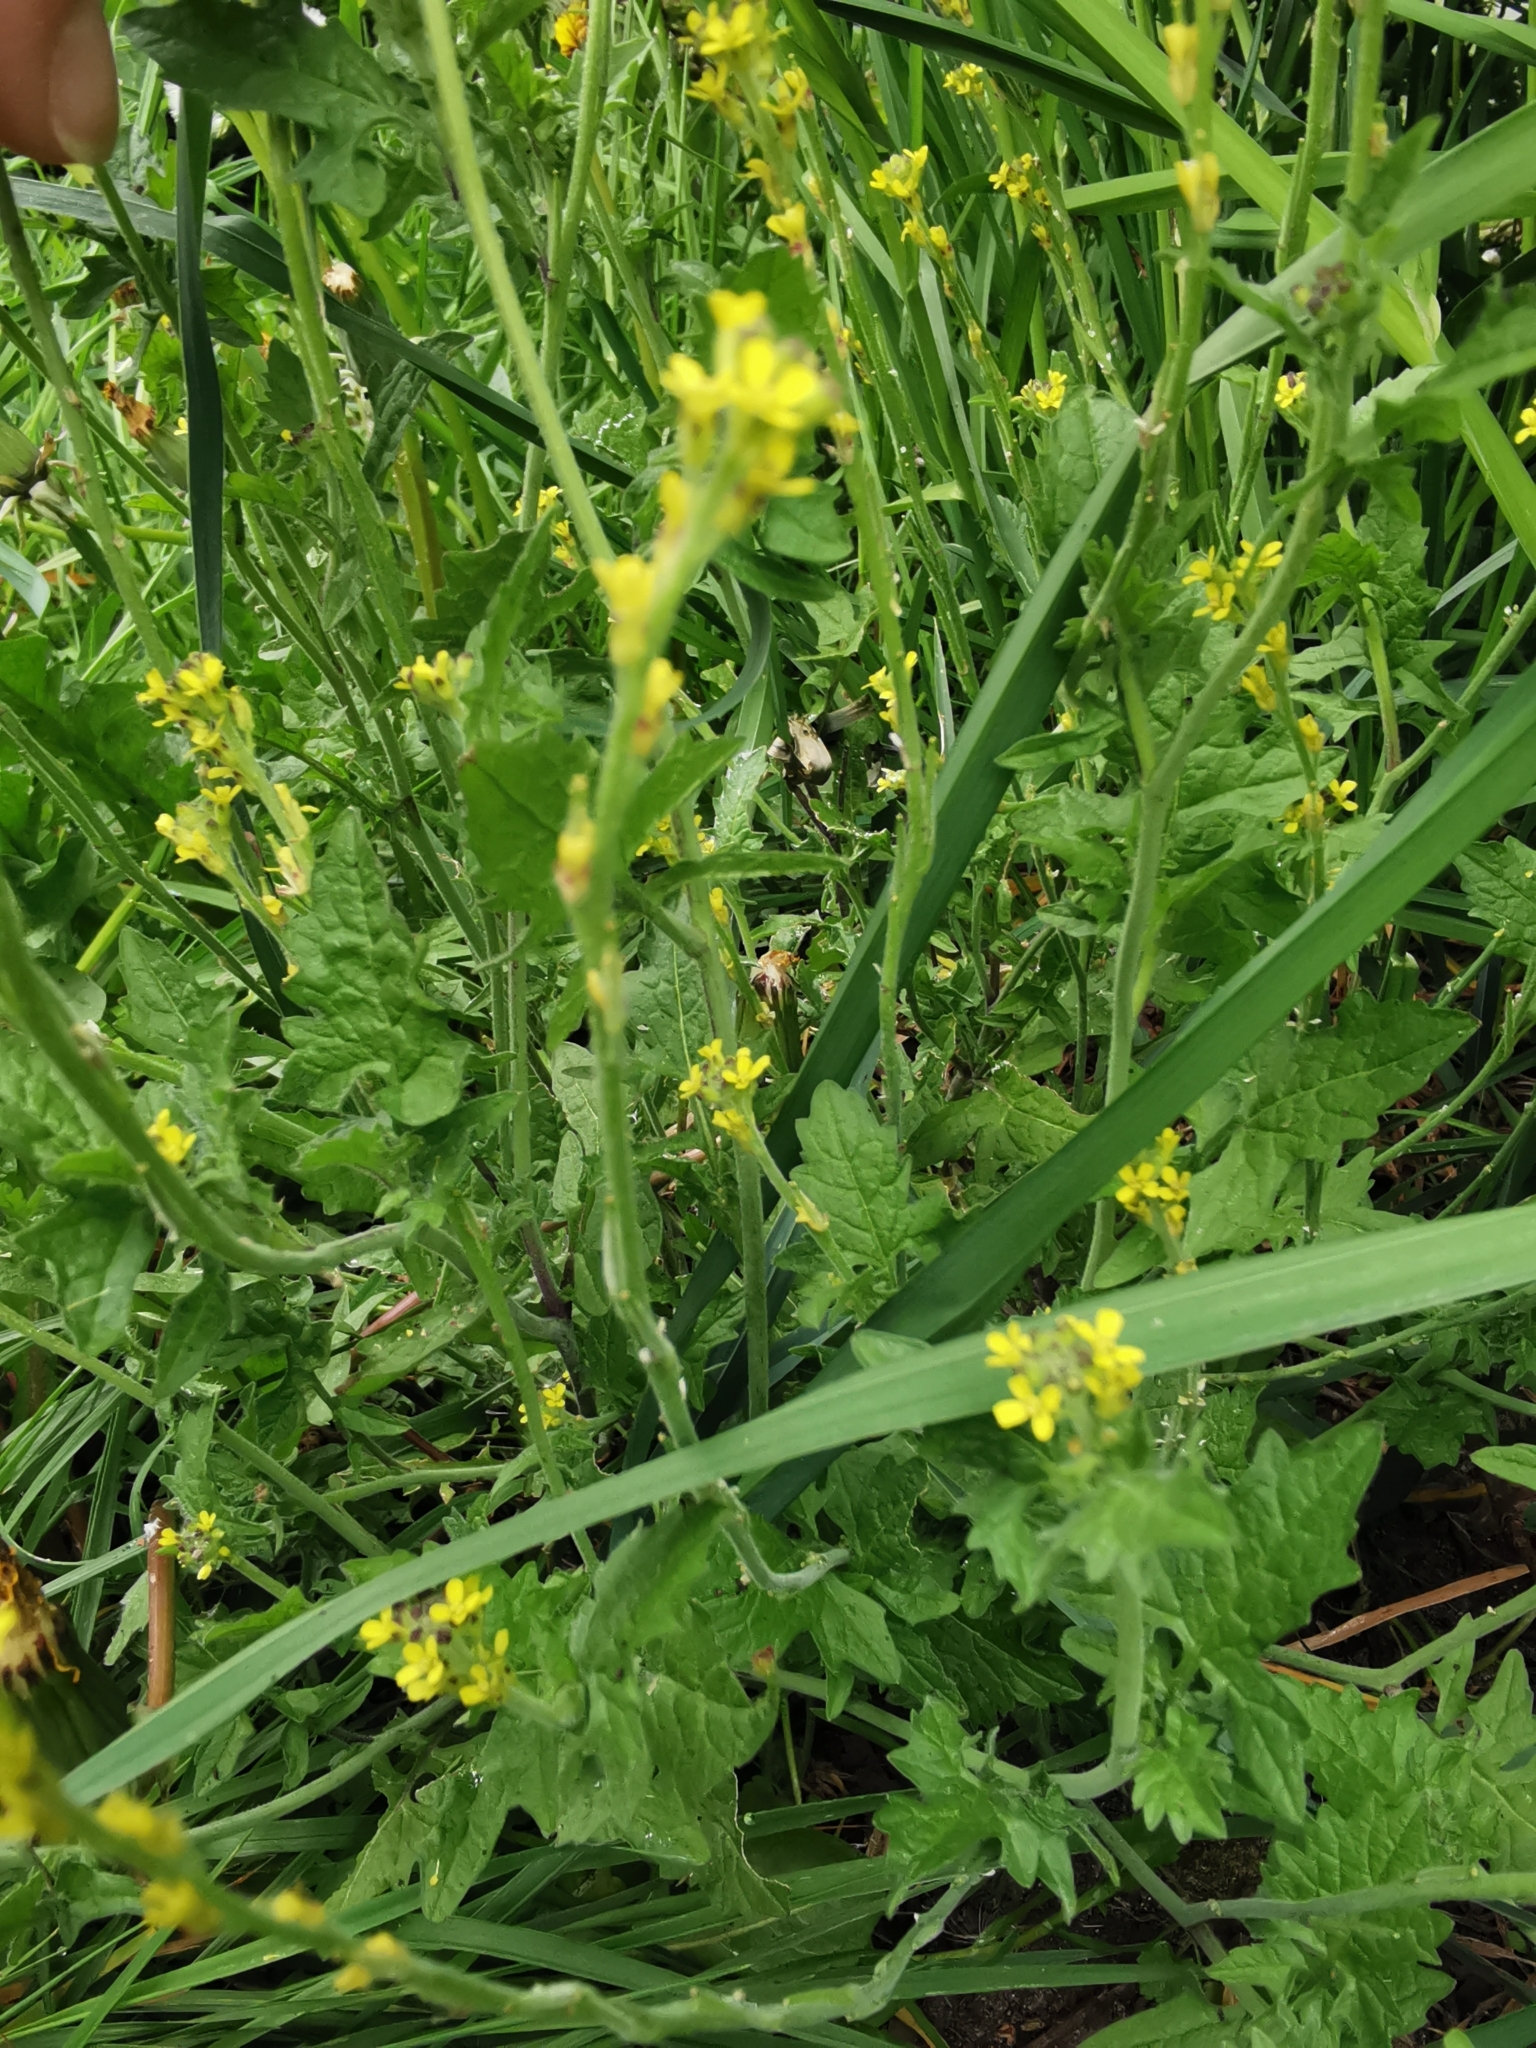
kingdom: Plantae
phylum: Tracheophyta
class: Magnoliopsida
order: Brassicales
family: Brassicaceae
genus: Sisymbrium
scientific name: Sisymbrium officinale
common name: Hedge mustard
